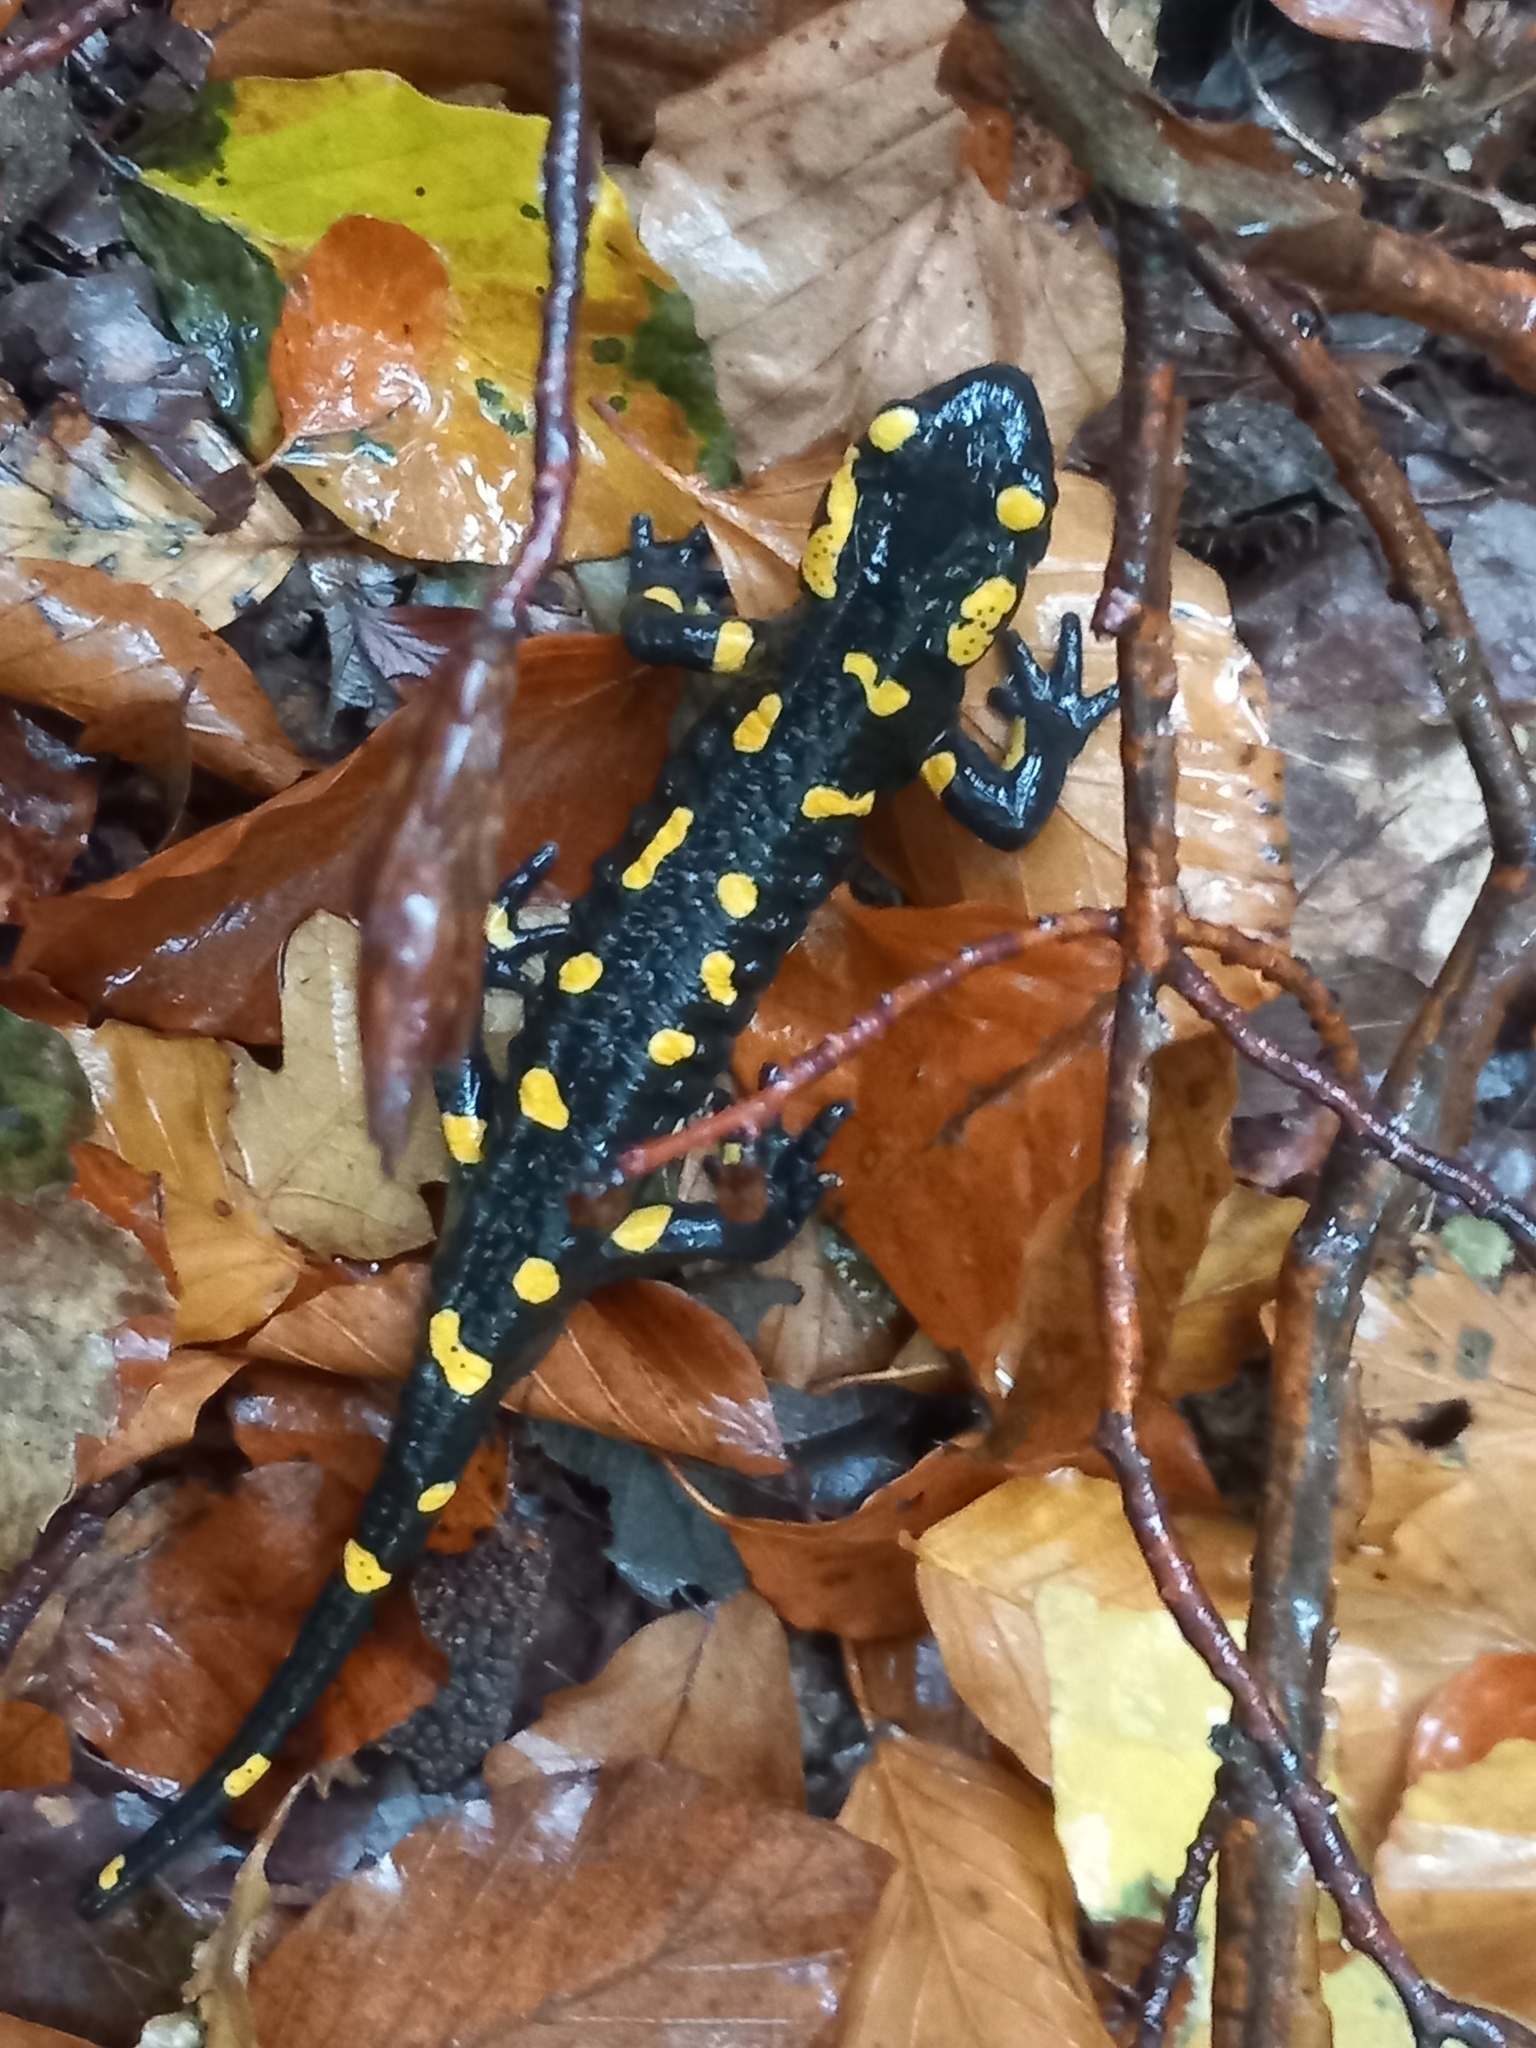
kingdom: Animalia
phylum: Chordata
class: Amphibia
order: Caudata
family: Salamandridae
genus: Salamandra
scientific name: Salamandra salamandra
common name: Fire salamander
